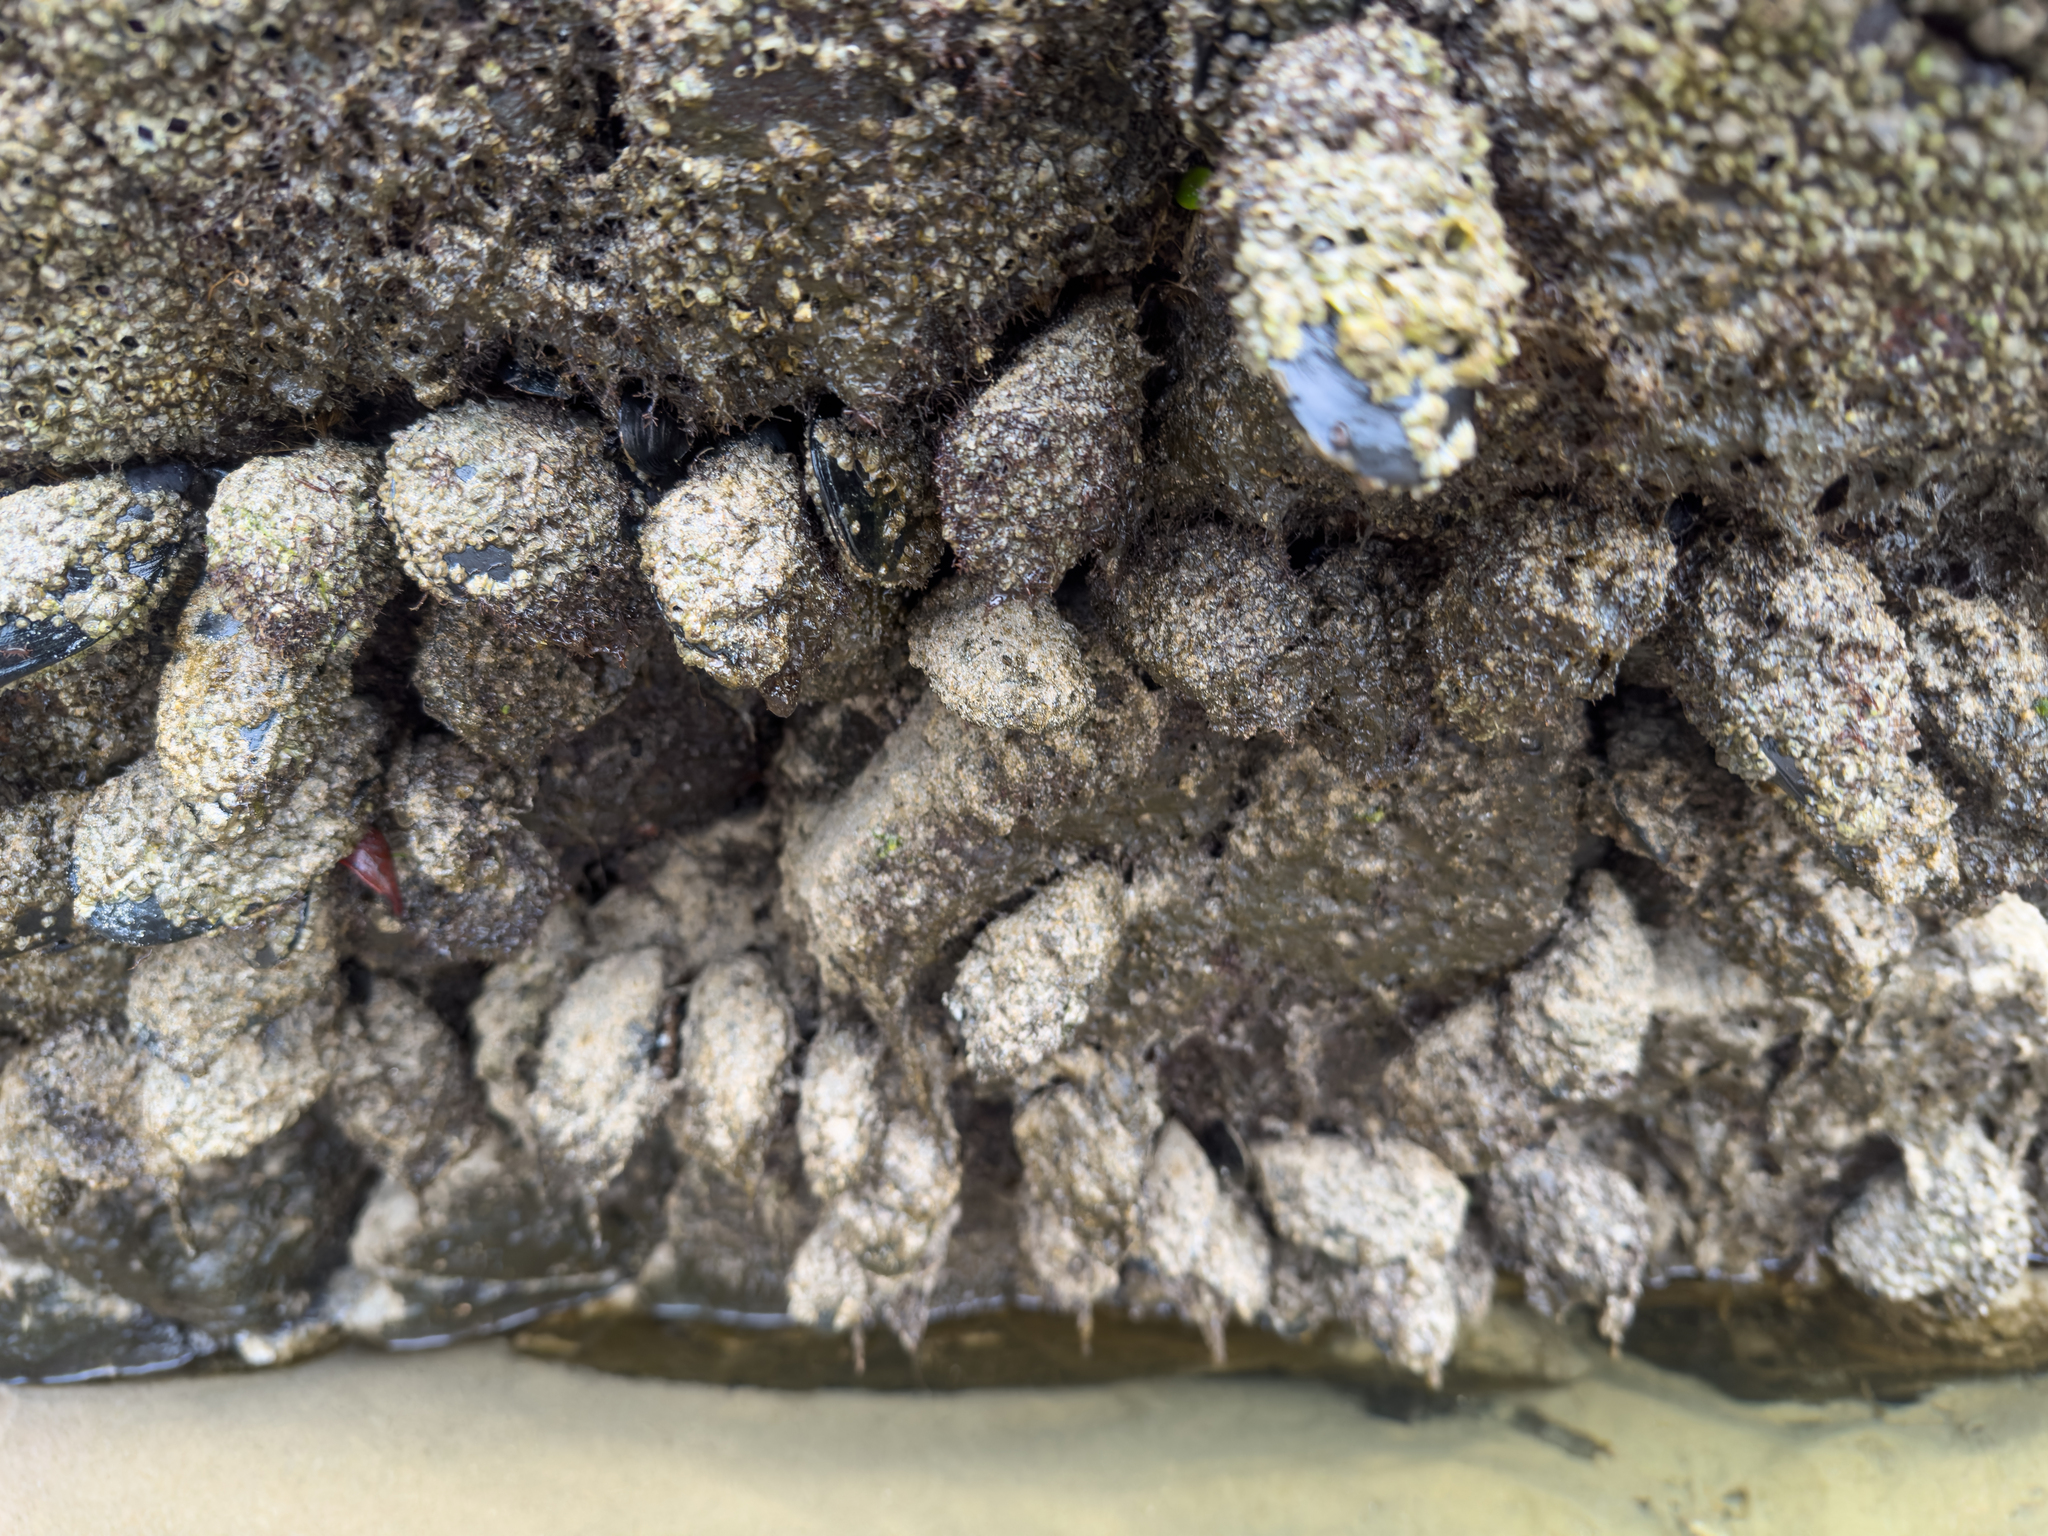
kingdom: Animalia
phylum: Mollusca
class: Bivalvia
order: Mytilida
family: Mytilidae
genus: Mytilus
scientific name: Mytilus planulatus
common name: Australian mussel
